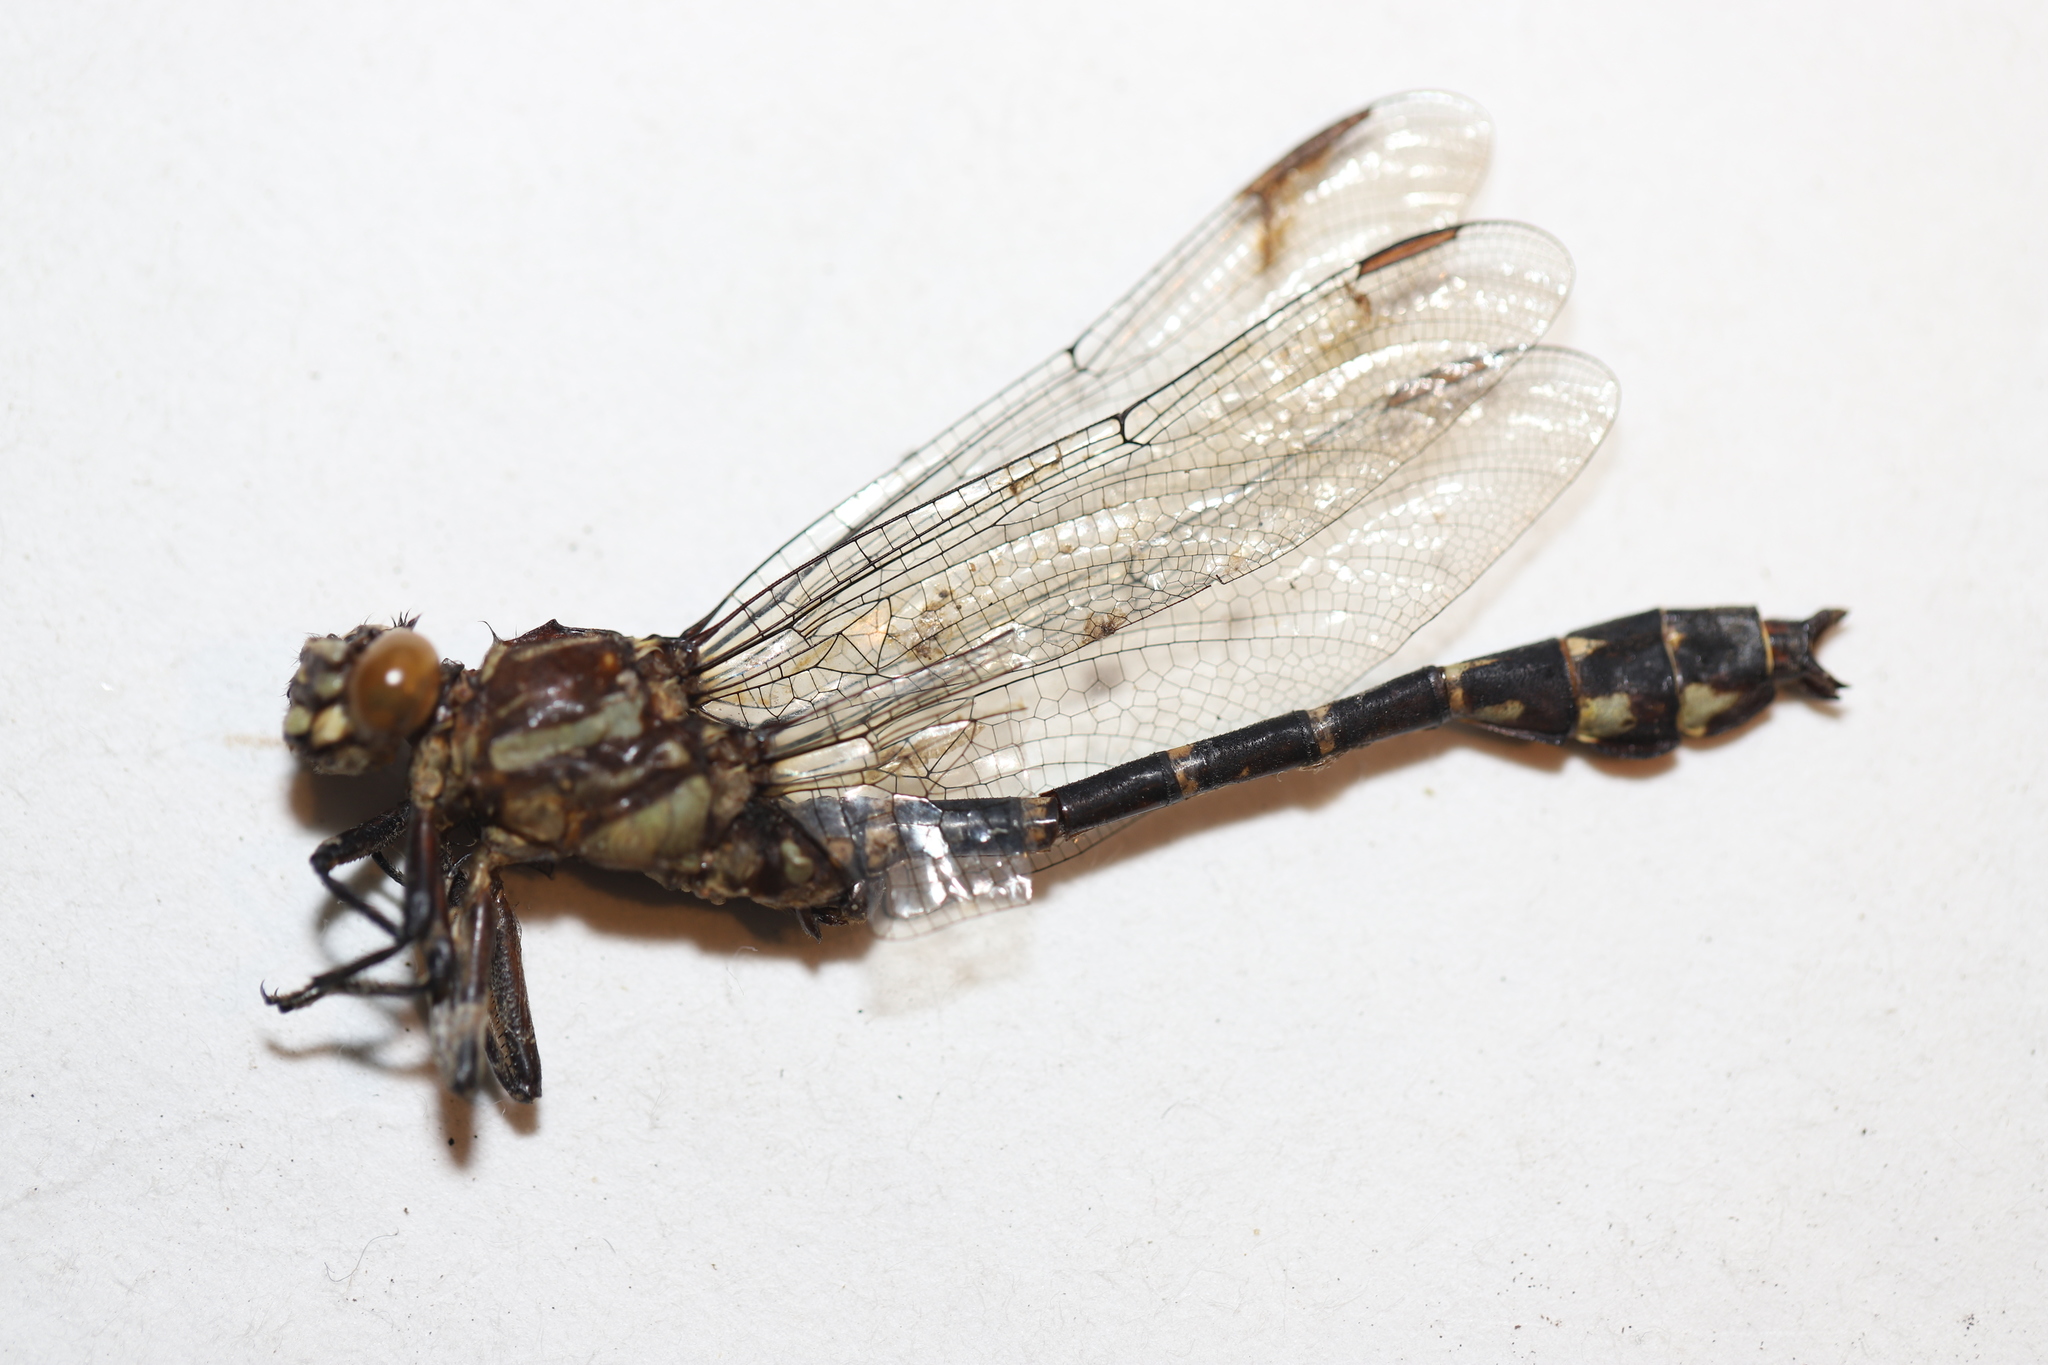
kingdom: Animalia
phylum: Arthropoda
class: Insecta
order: Odonata
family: Gomphidae
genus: Stylurus
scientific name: Stylurus scudderi
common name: Zebra clubtail
